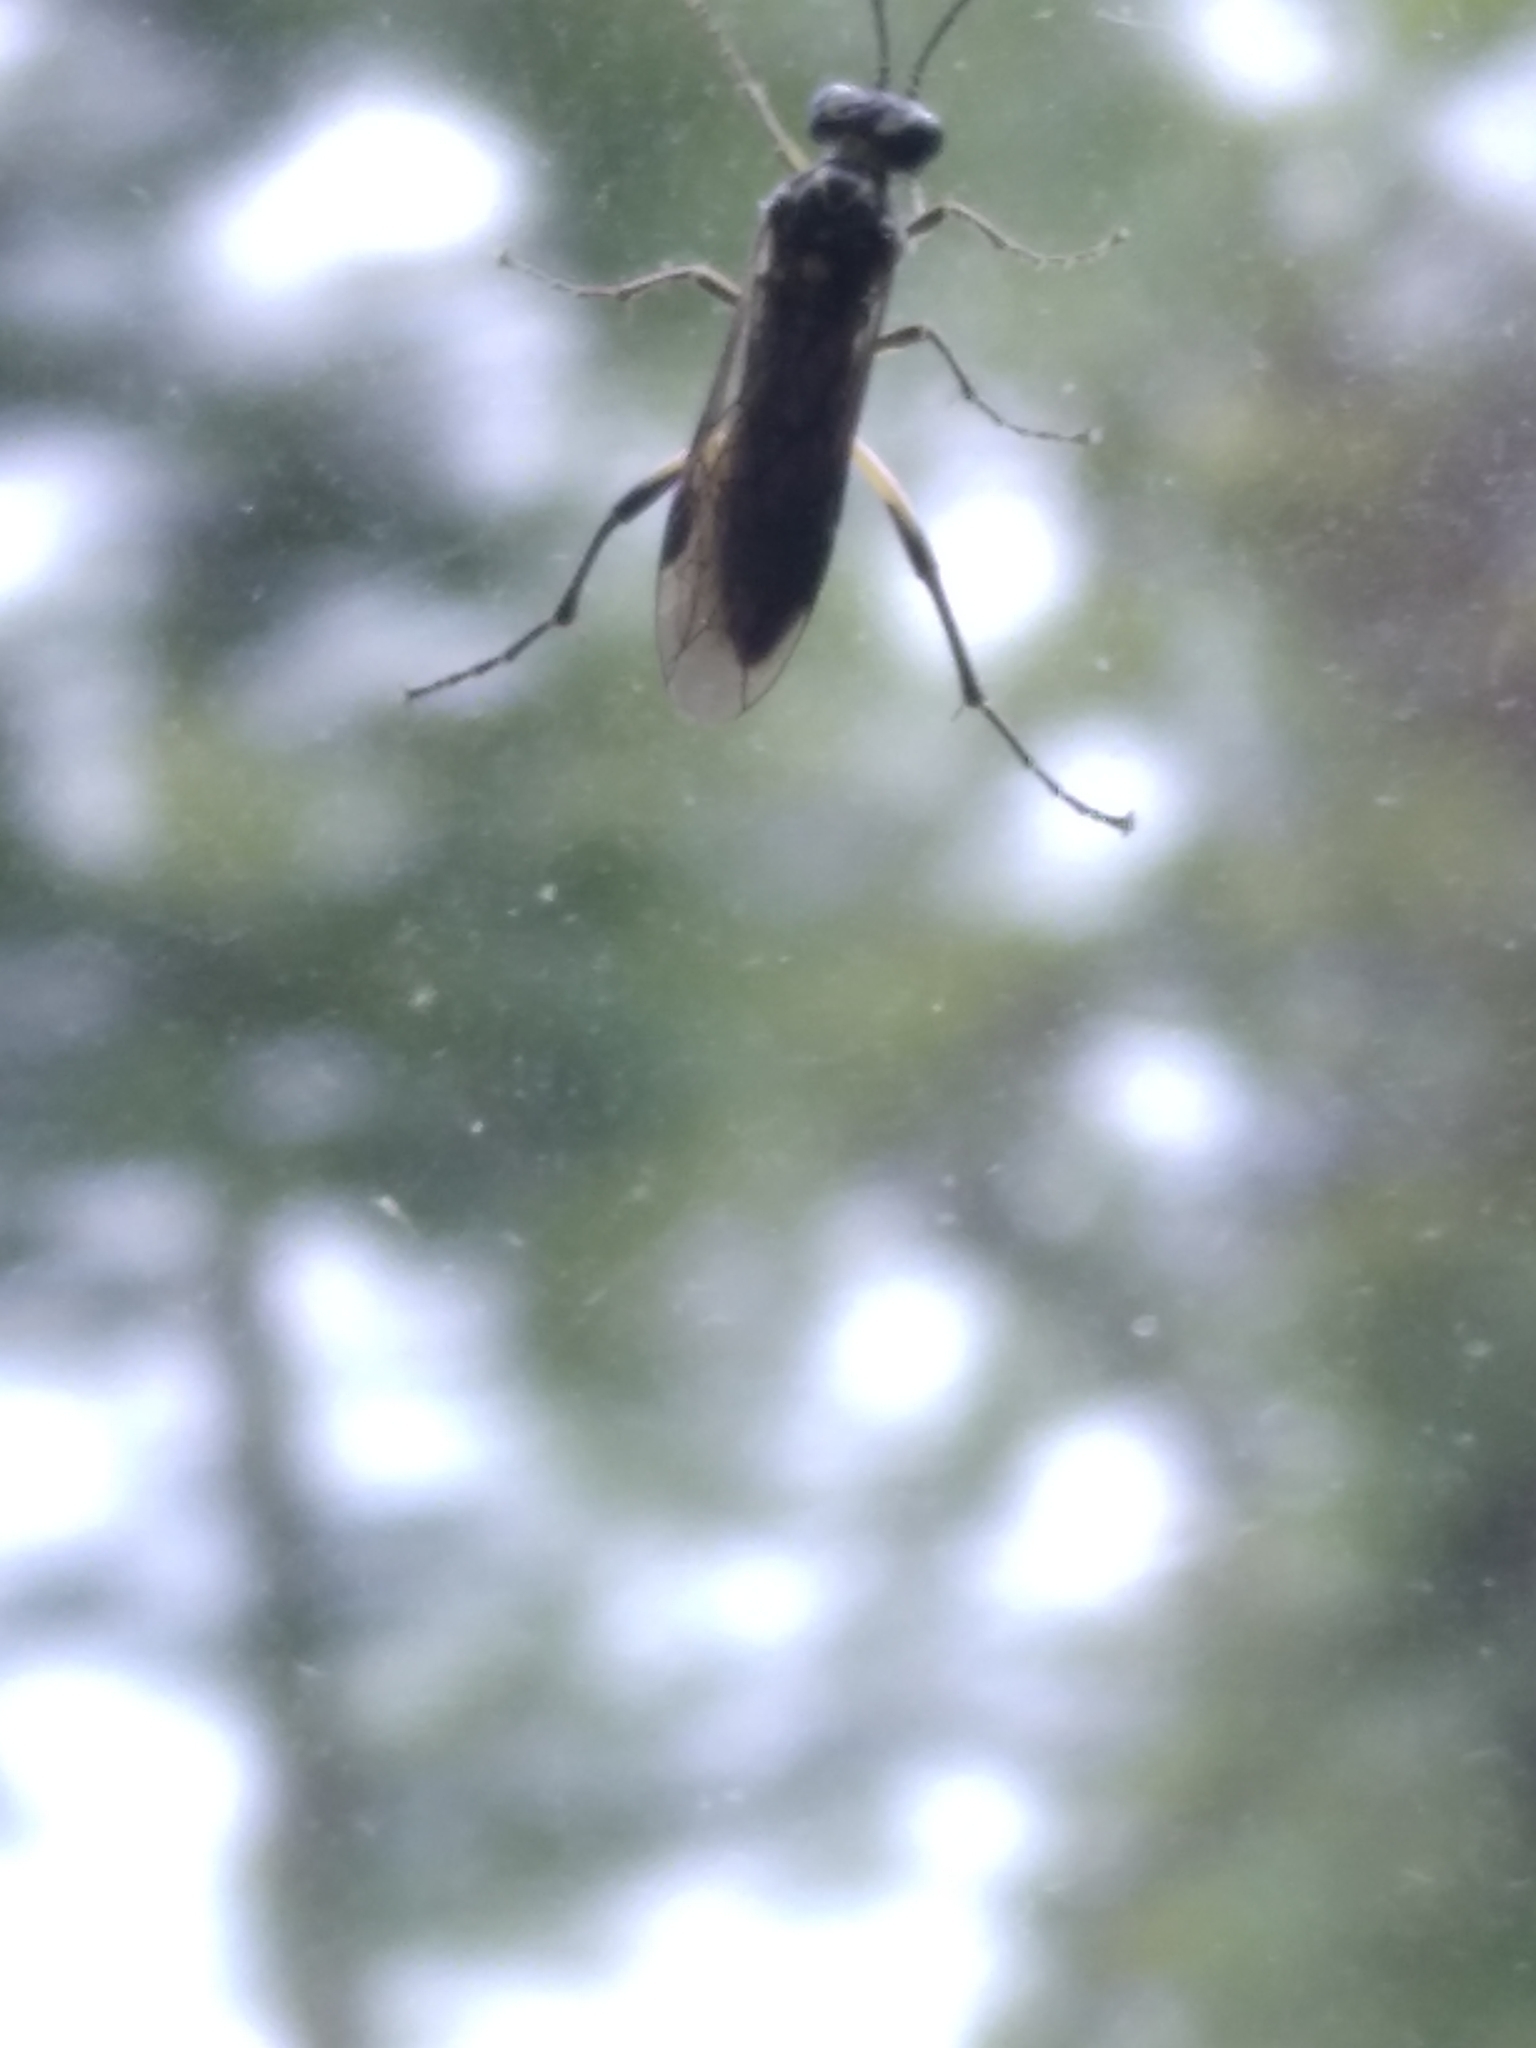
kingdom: Animalia
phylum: Arthropoda
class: Insecta
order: Hymenoptera
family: Tenthredinidae
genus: Pachyprotasis
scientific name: Pachyprotasis
